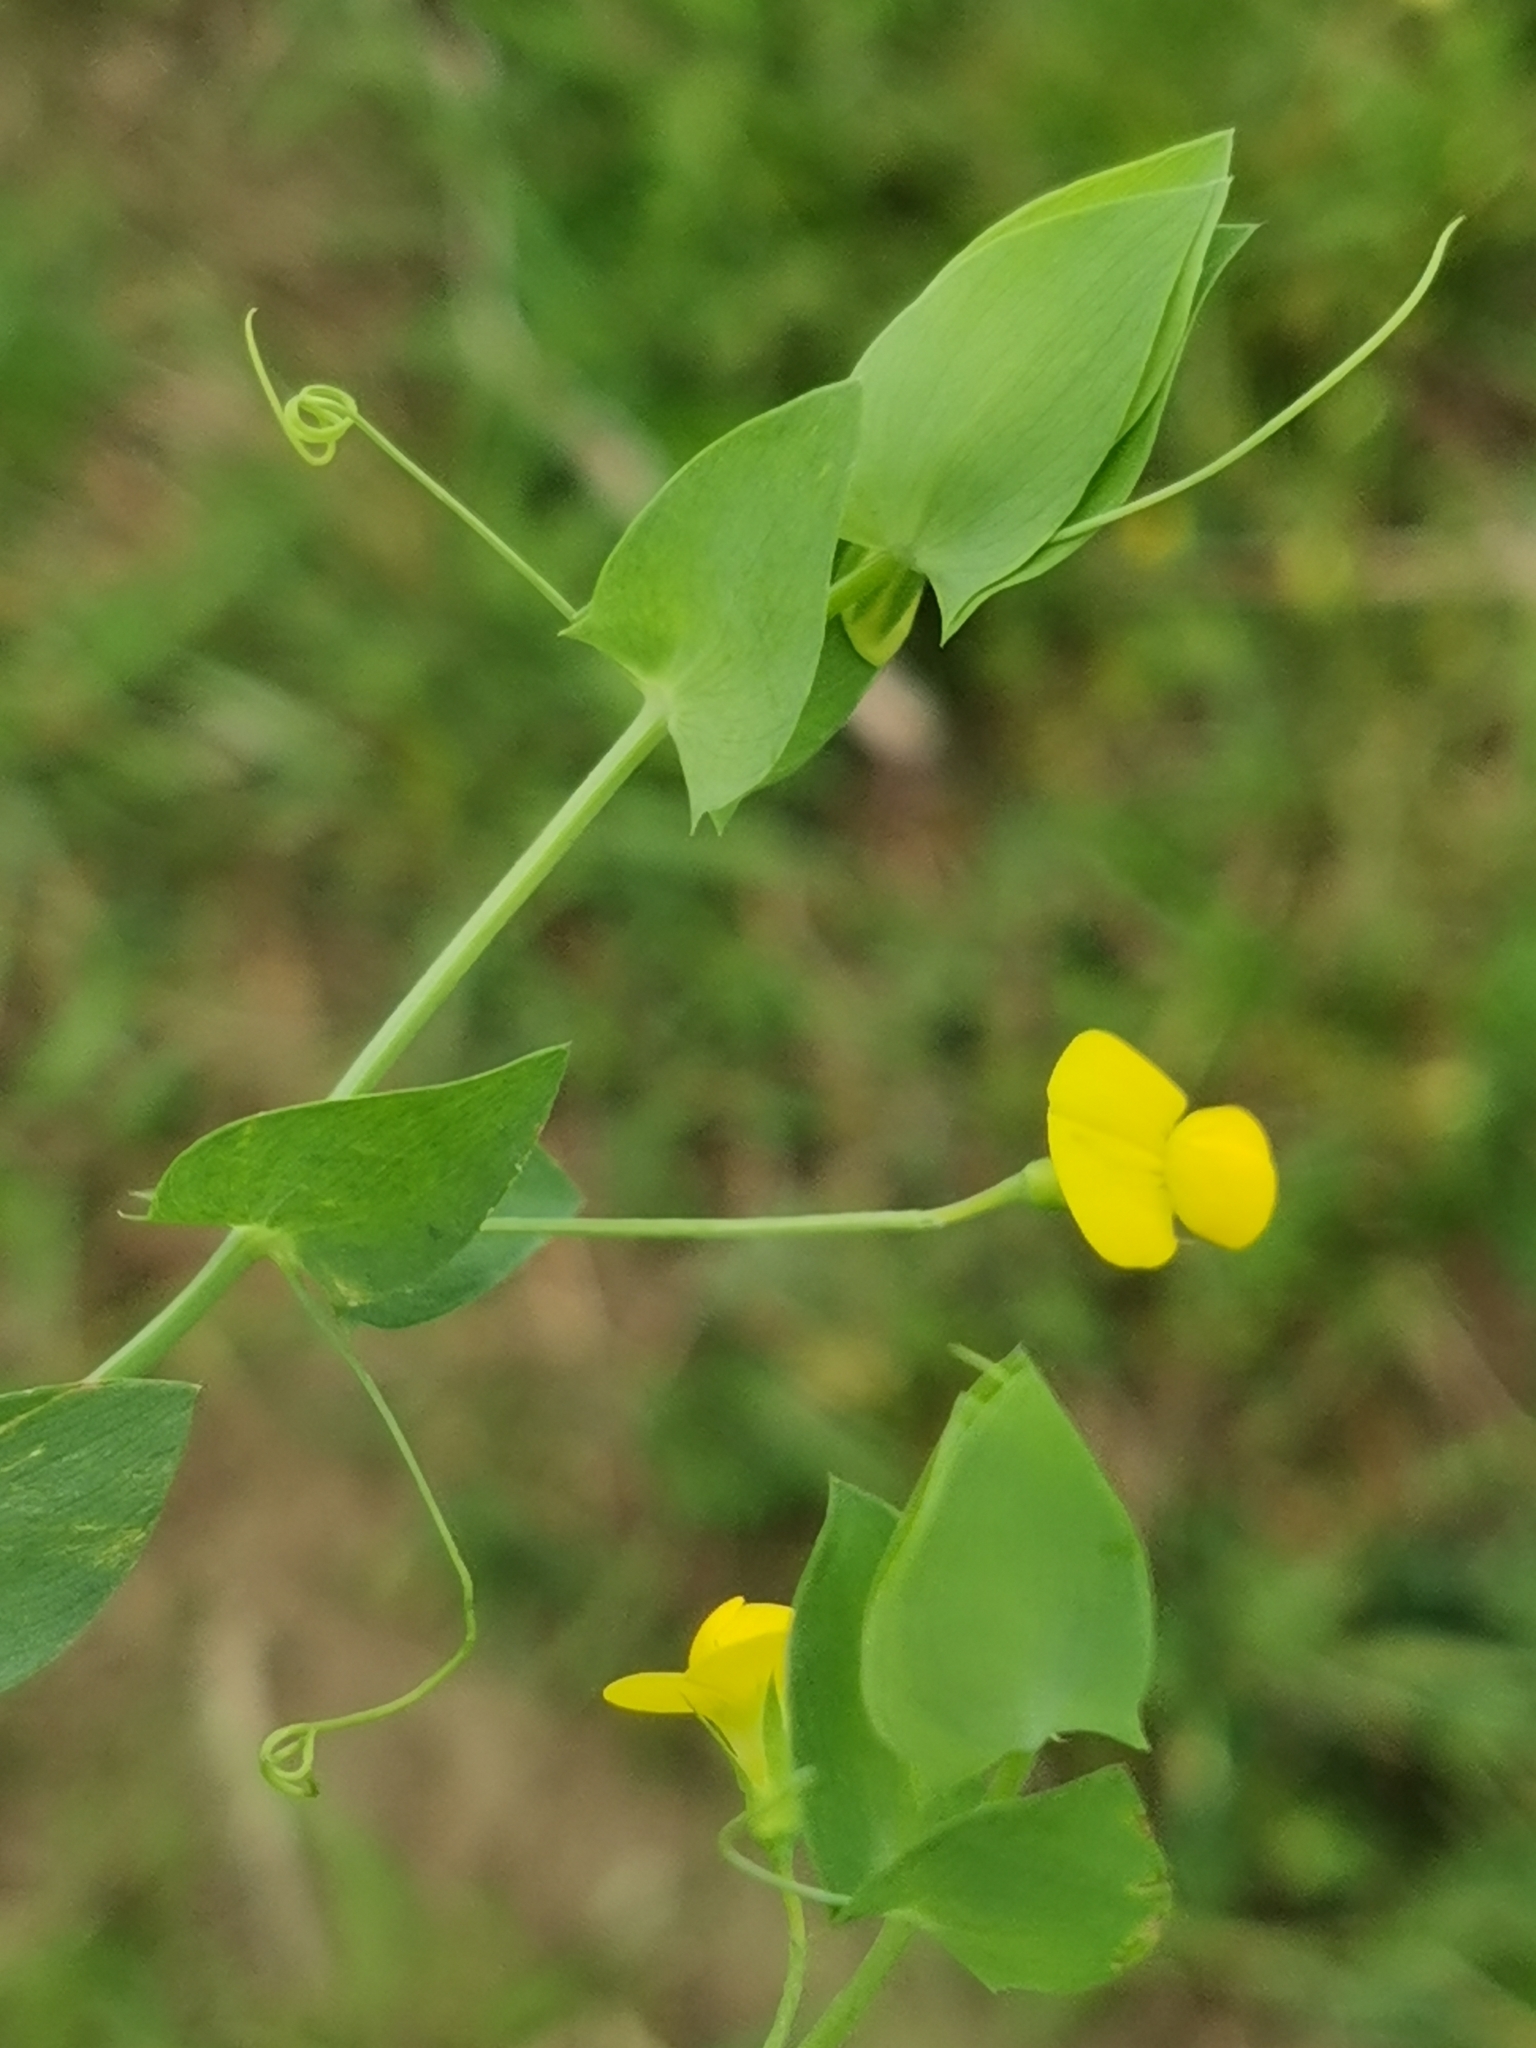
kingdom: Plantae
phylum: Tracheophyta
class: Magnoliopsida
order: Fabales
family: Fabaceae
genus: Lathyrus
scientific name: Lathyrus aphaca
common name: Yellow vetchling
